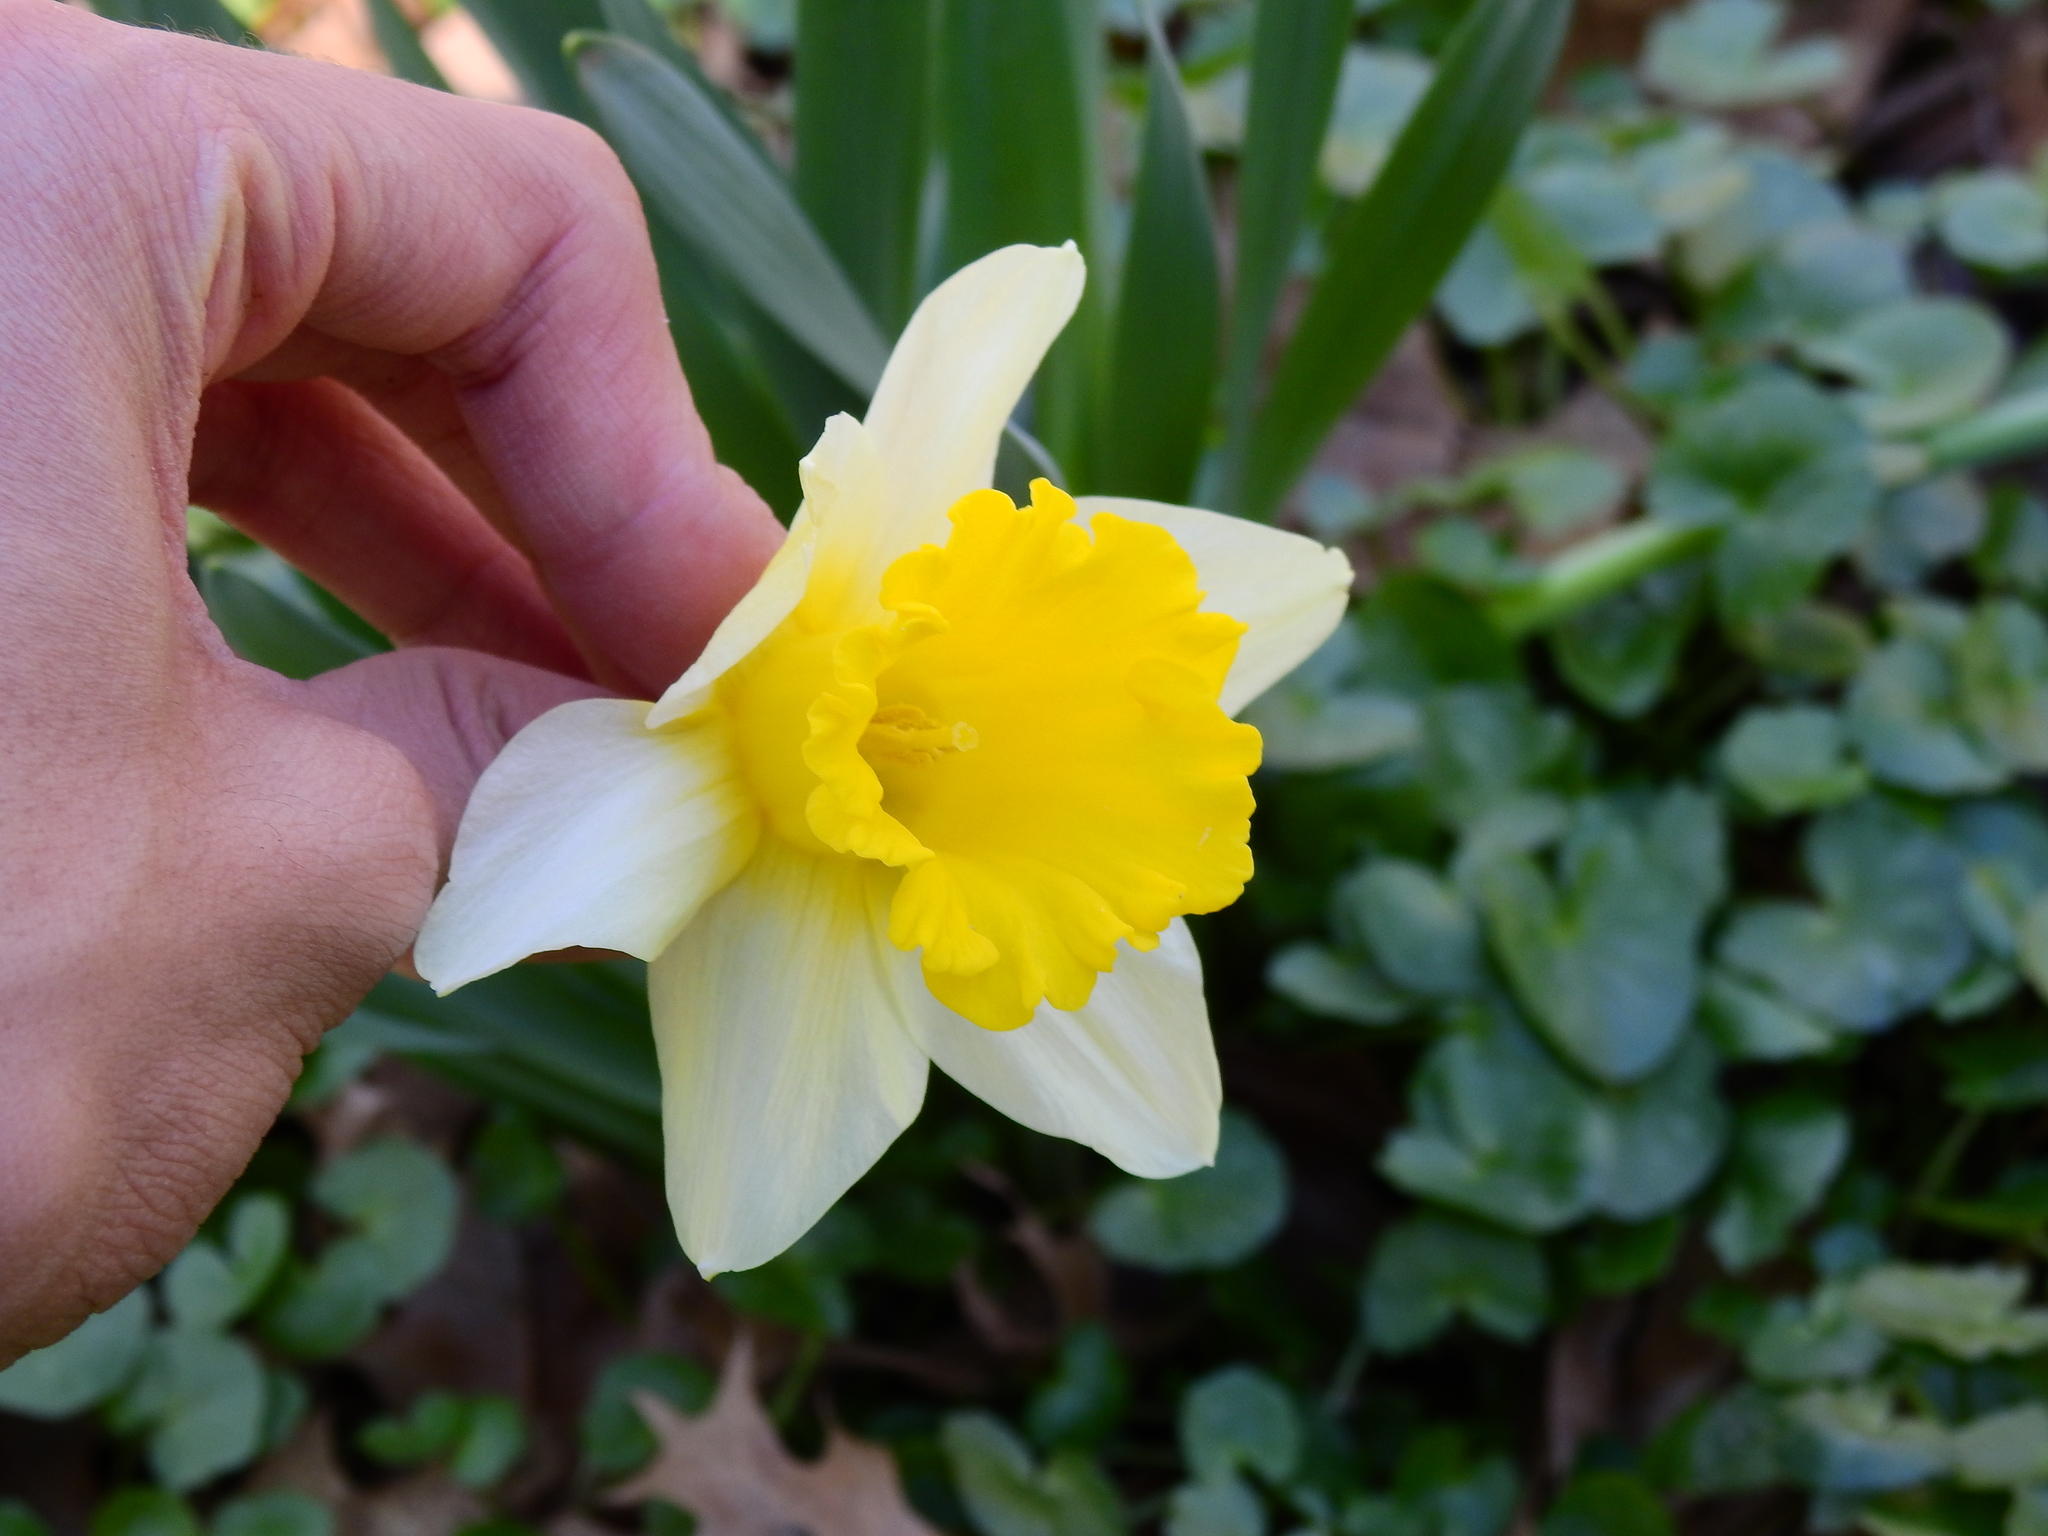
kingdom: Plantae
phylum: Tracheophyta
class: Liliopsida
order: Asparagales
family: Amaryllidaceae
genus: Narcissus
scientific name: Narcissus pseudonarcissus
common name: Daffodil
